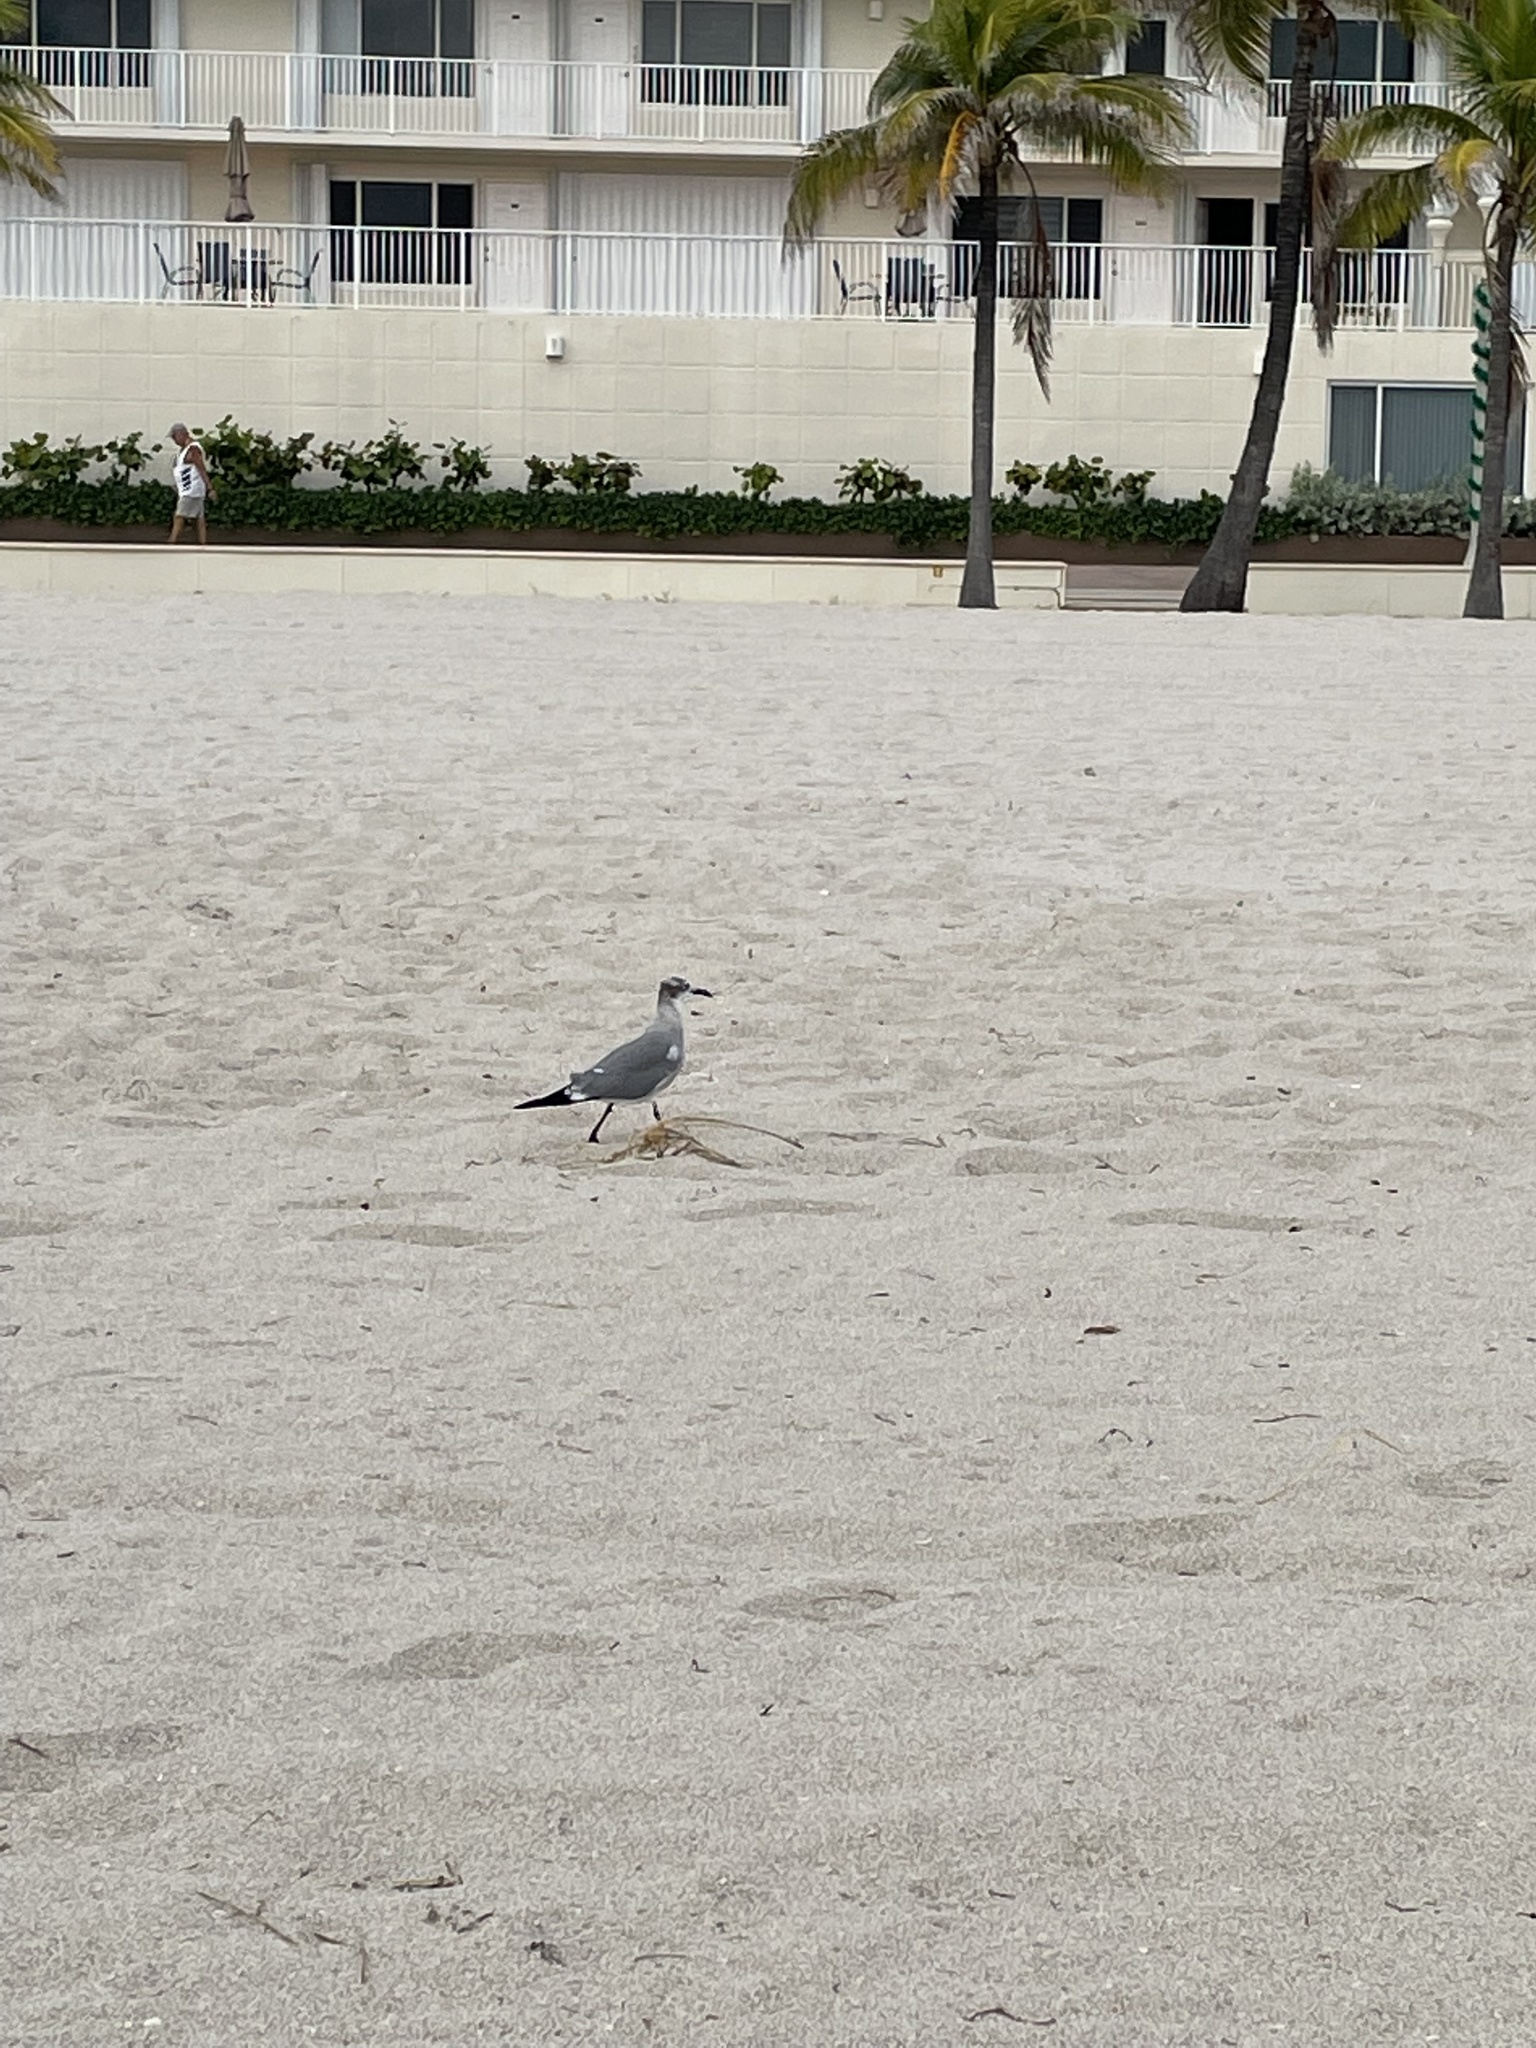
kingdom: Animalia
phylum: Chordata
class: Aves
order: Charadriiformes
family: Laridae
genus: Leucophaeus
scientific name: Leucophaeus atricilla
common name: Laughing gull
